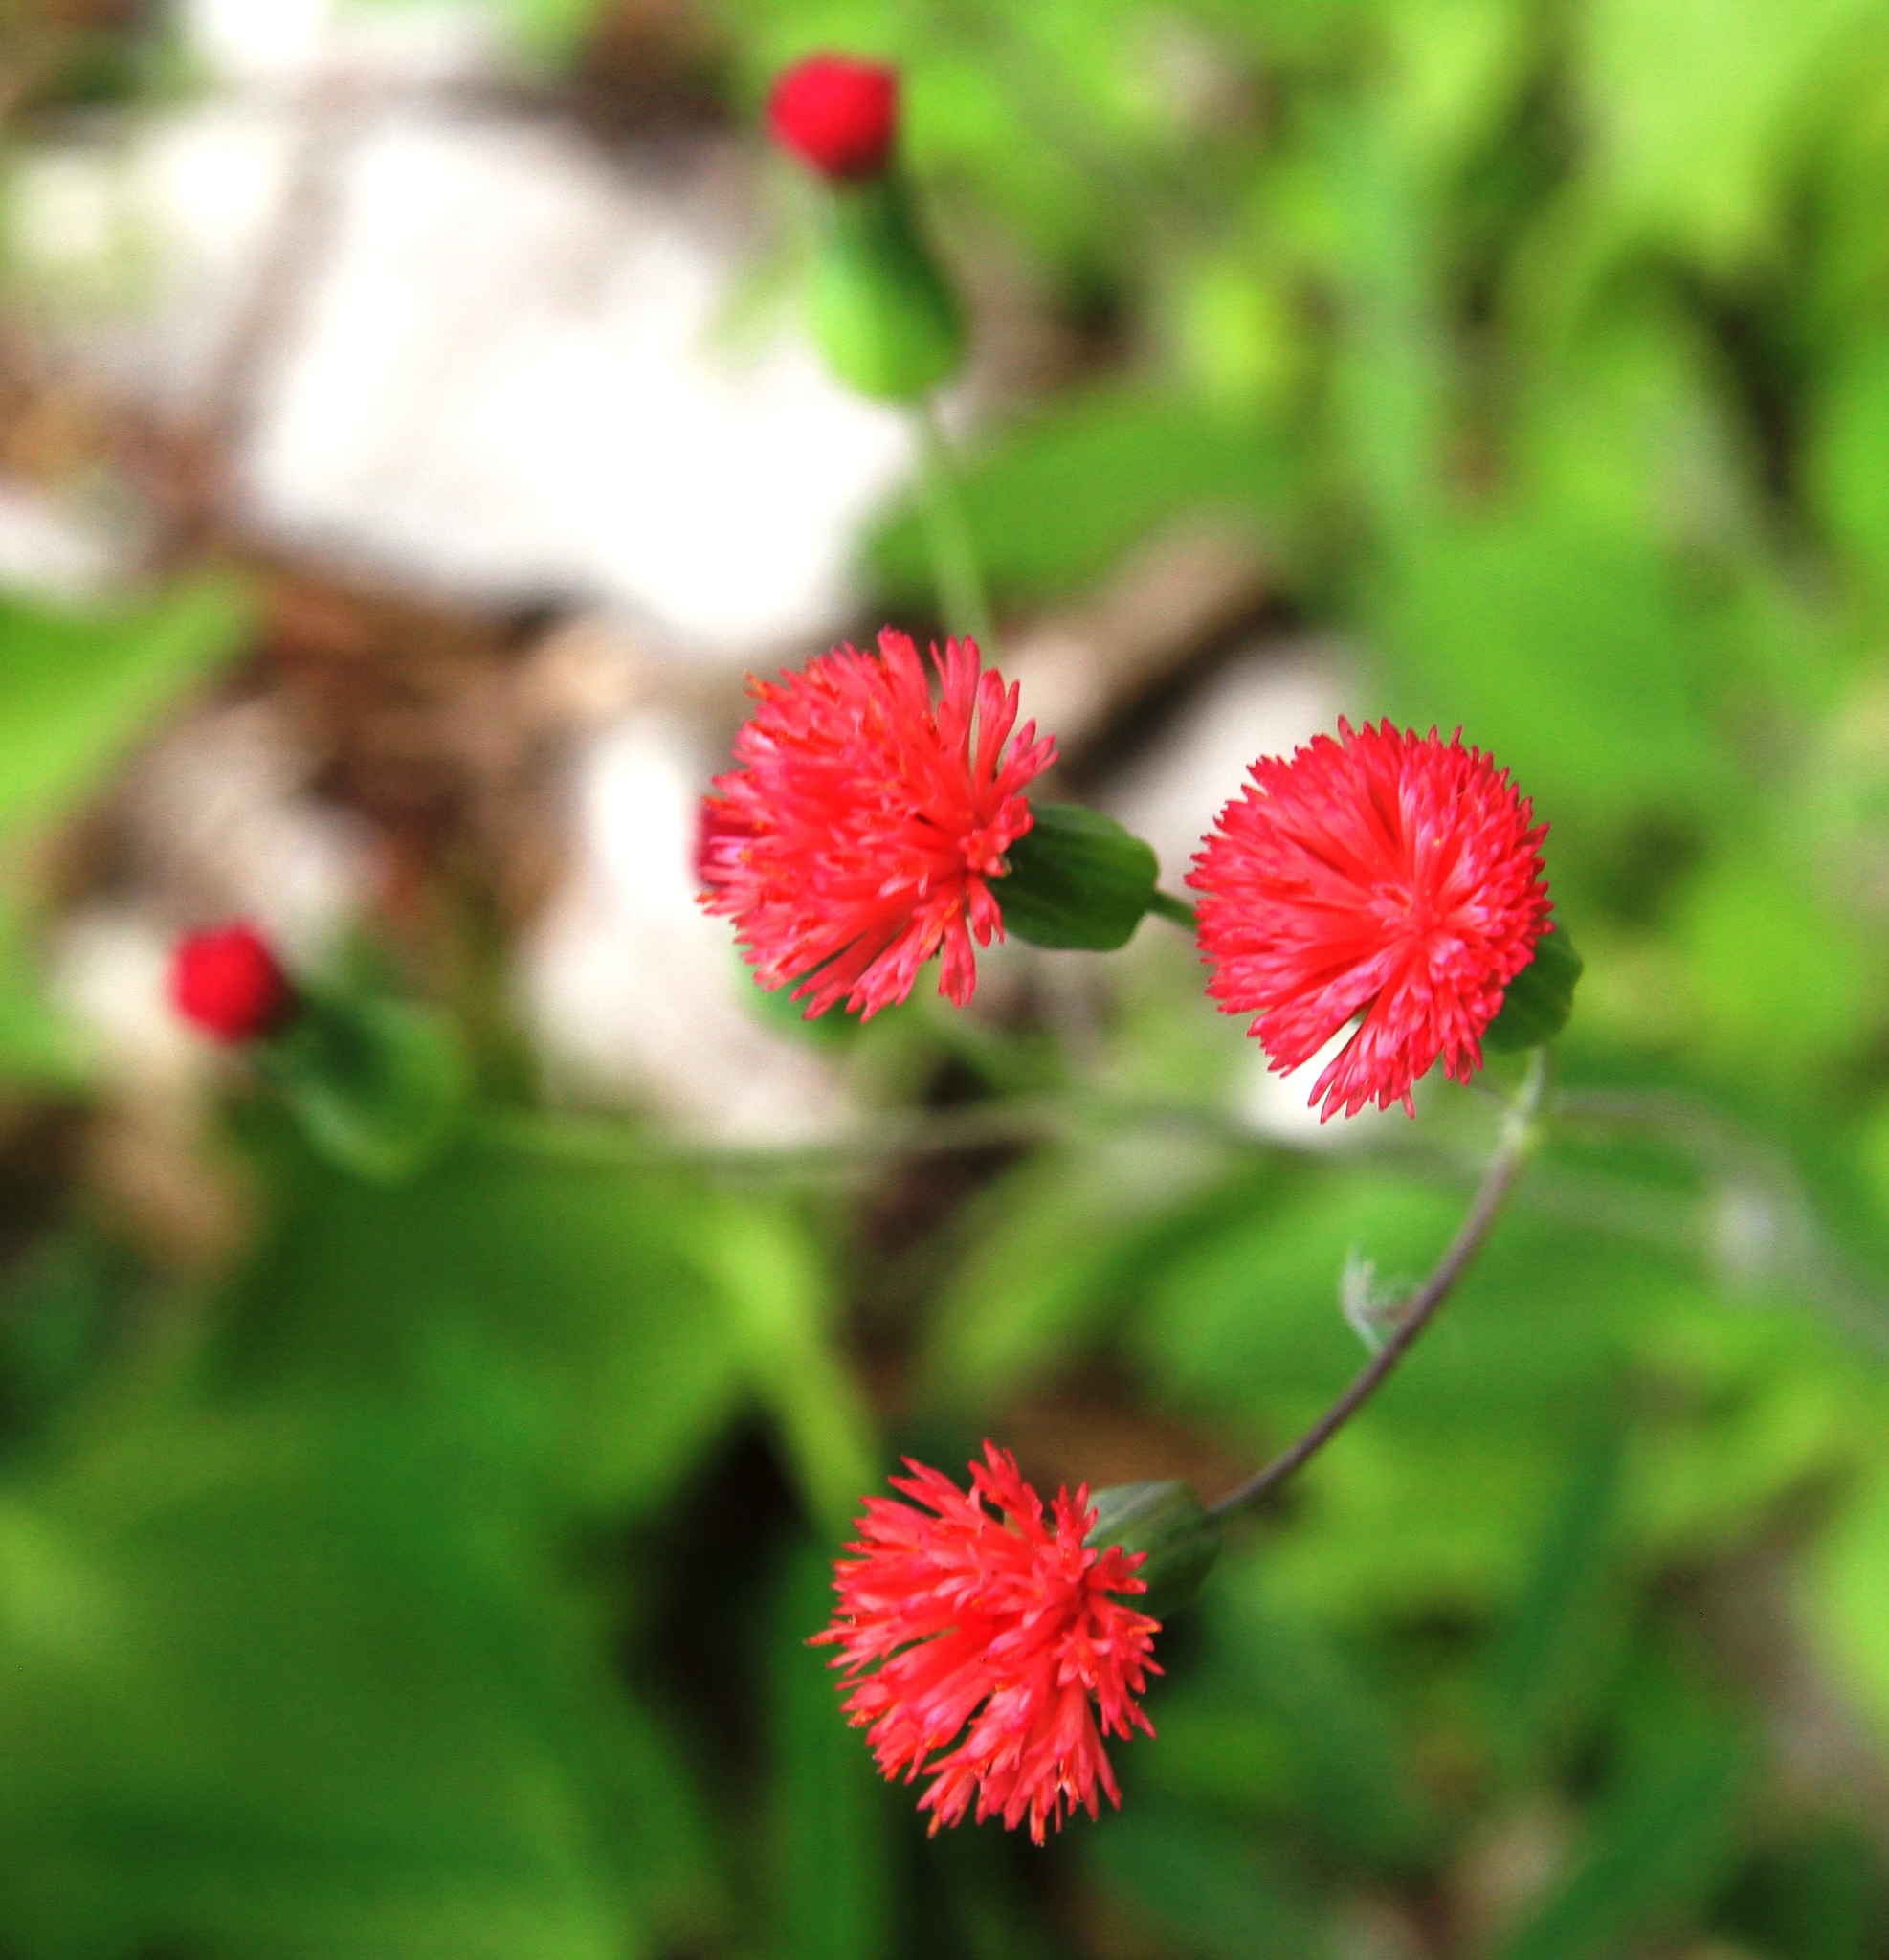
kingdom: Plantae
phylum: Tracheophyta
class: Magnoliopsida
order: Asterales
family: Asteraceae
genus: Emilia
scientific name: Emilia fosbergii
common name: Florida tasselflower
